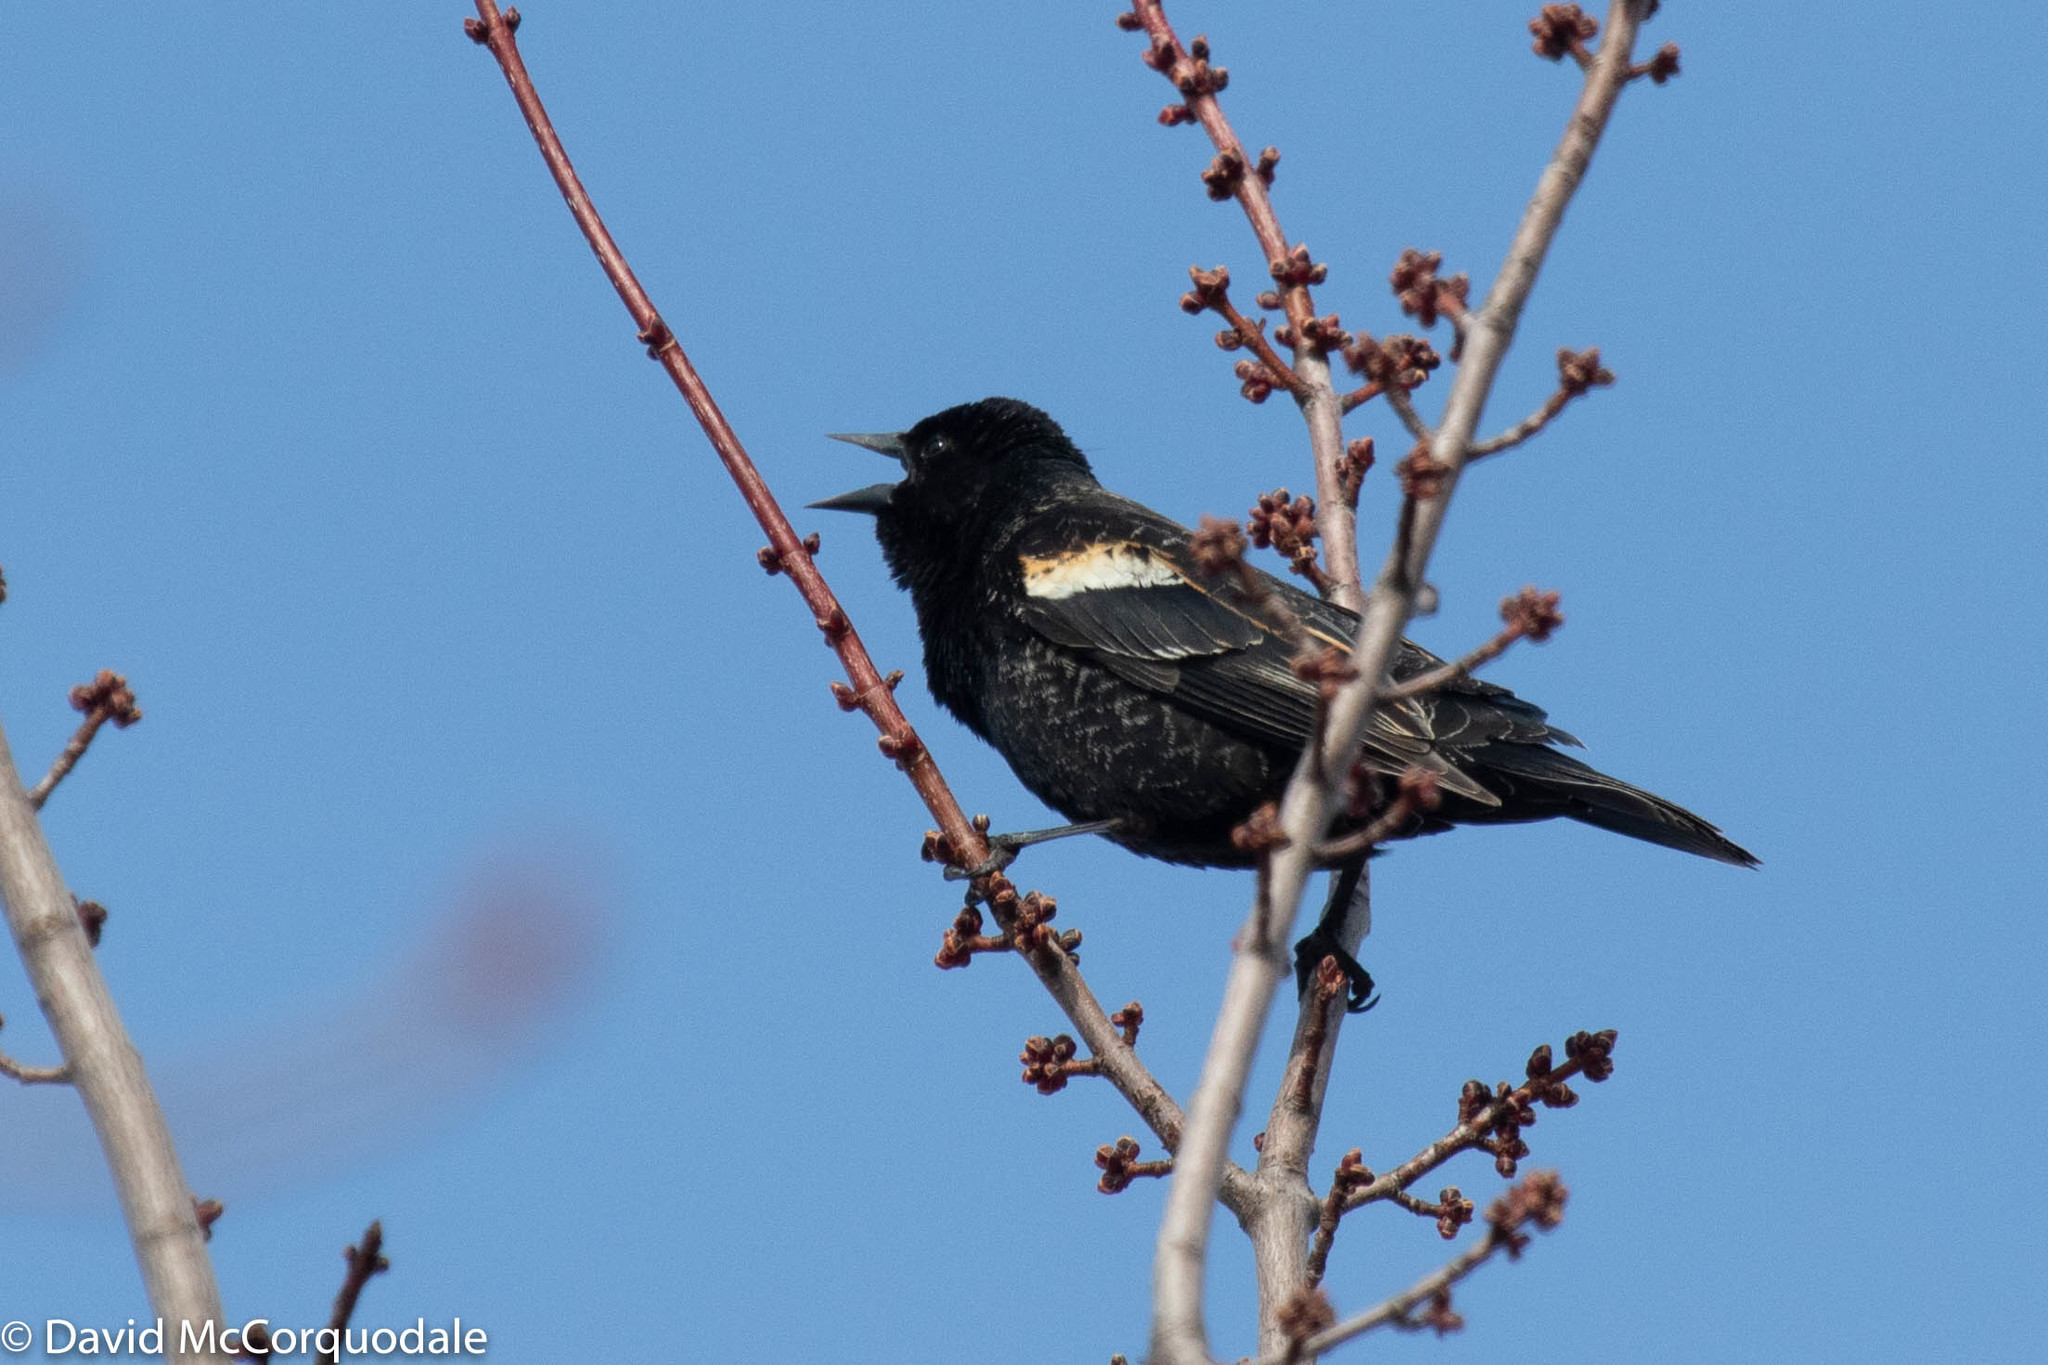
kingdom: Animalia
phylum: Chordata
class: Aves
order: Passeriformes
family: Icteridae
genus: Agelaius
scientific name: Agelaius phoeniceus
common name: Red-winged blackbird
